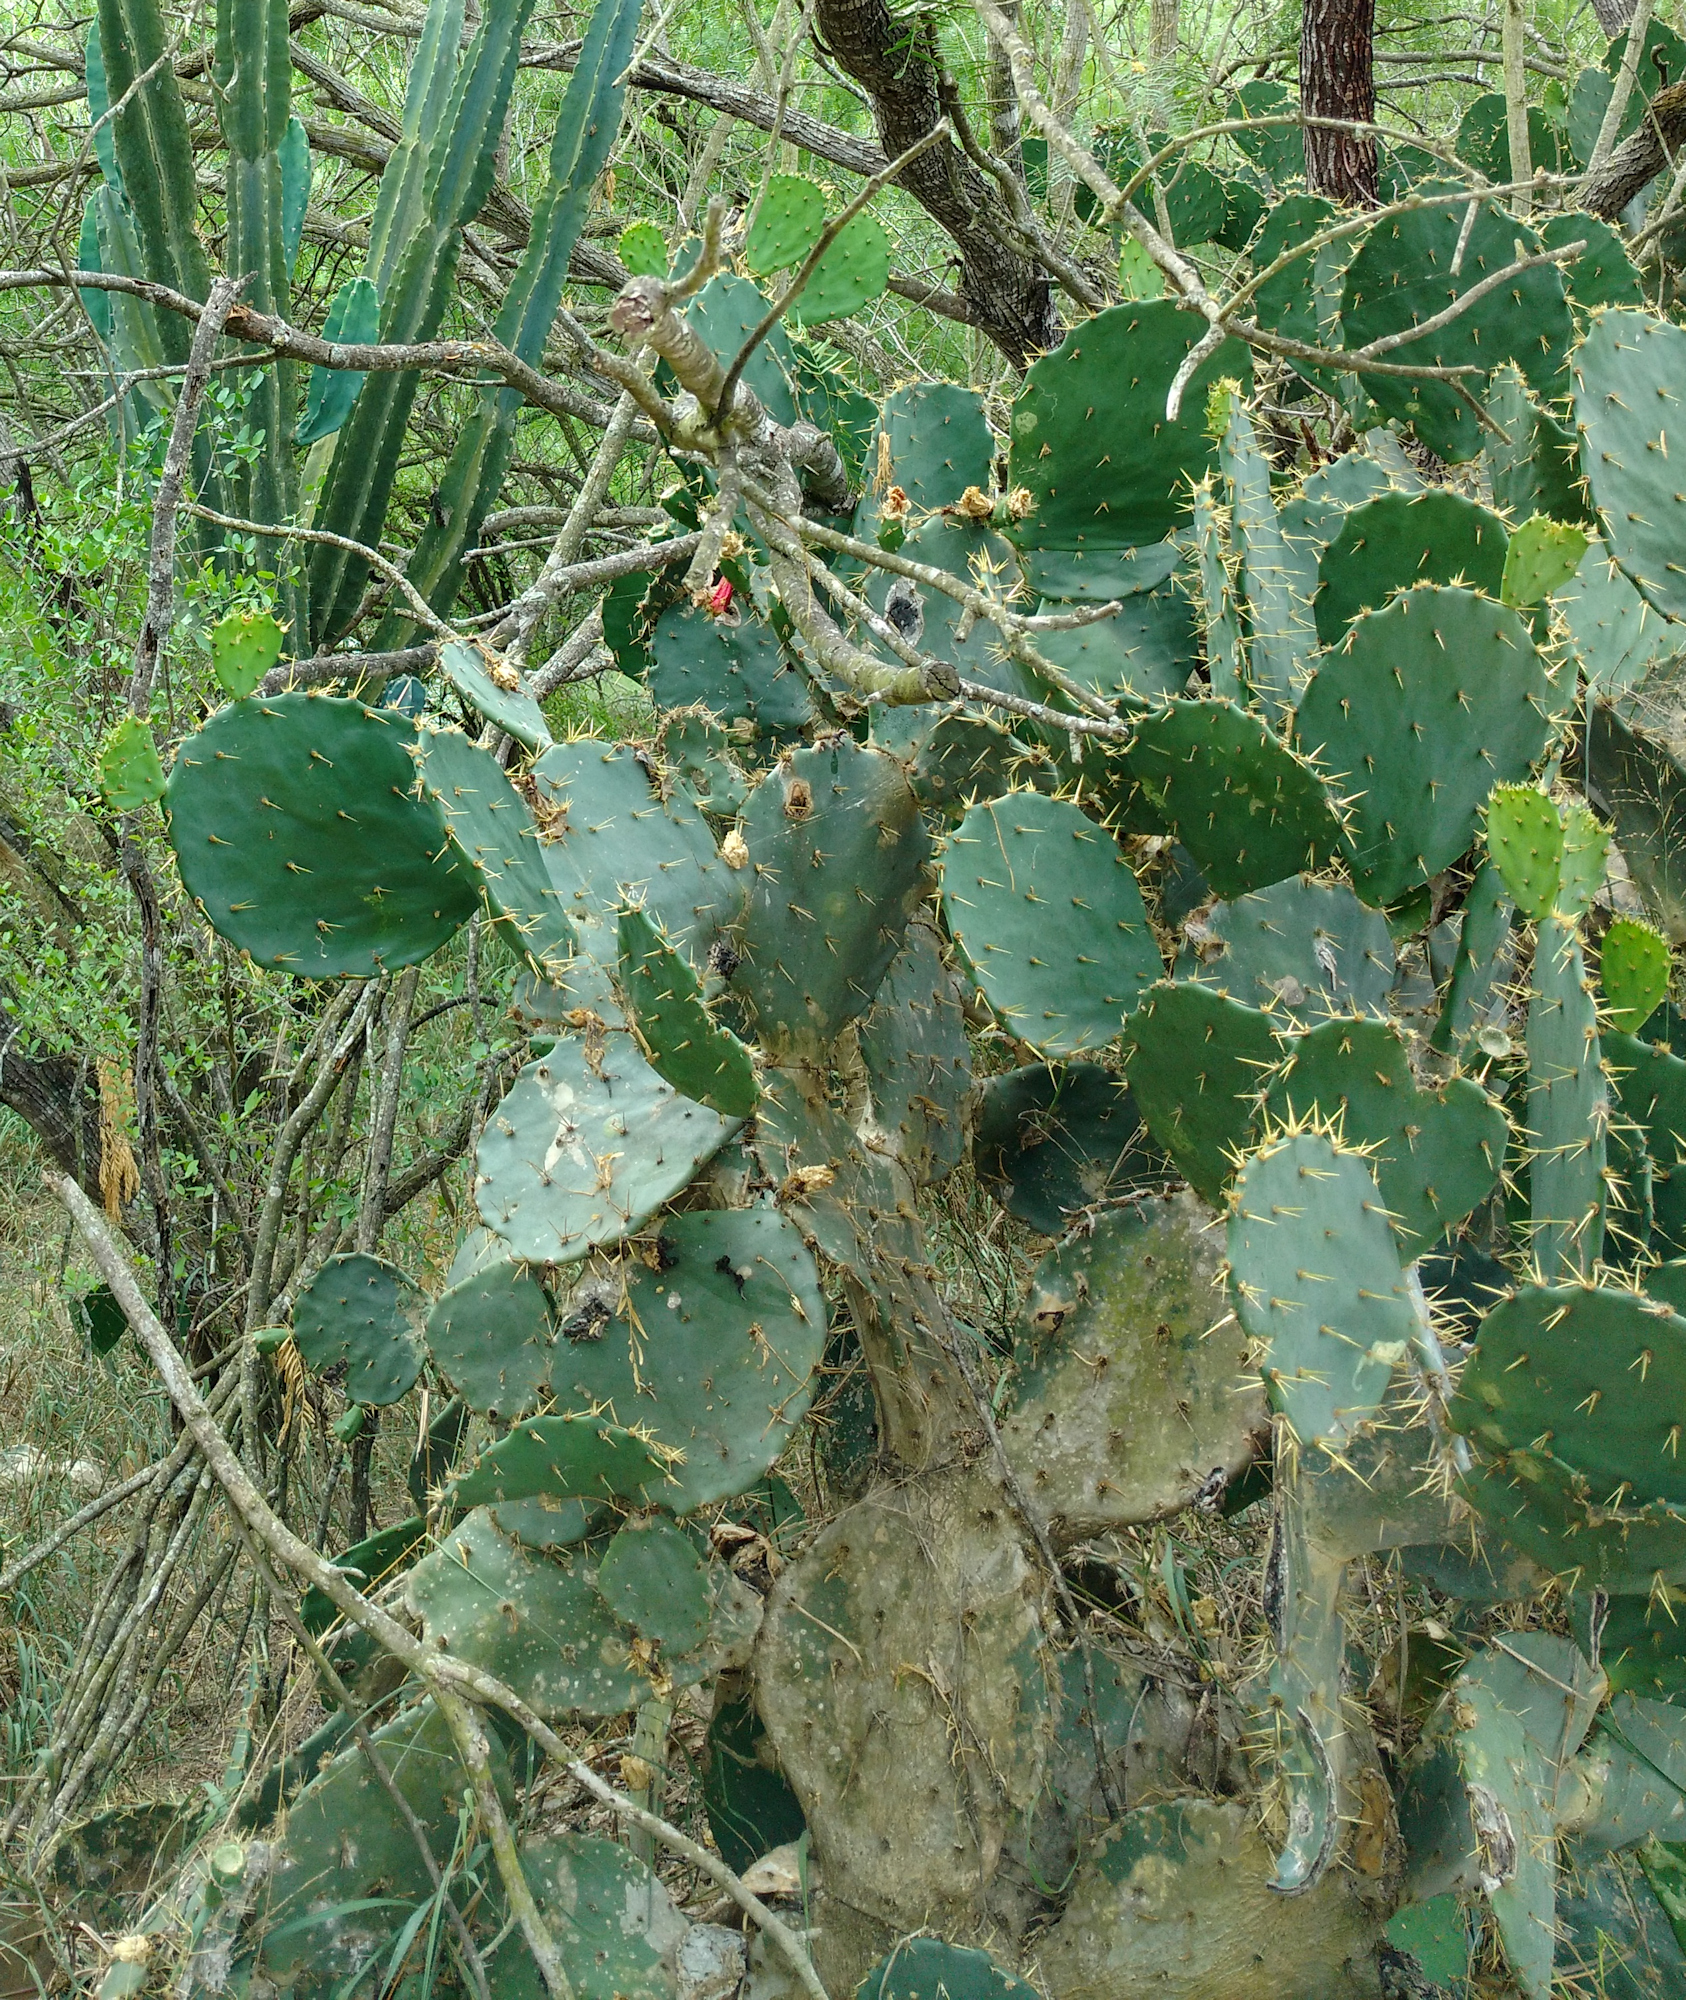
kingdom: Plantae
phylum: Tracheophyta
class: Magnoliopsida
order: Caryophyllales
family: Cactaceae
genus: Opuntia
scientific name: Opuntia alta
